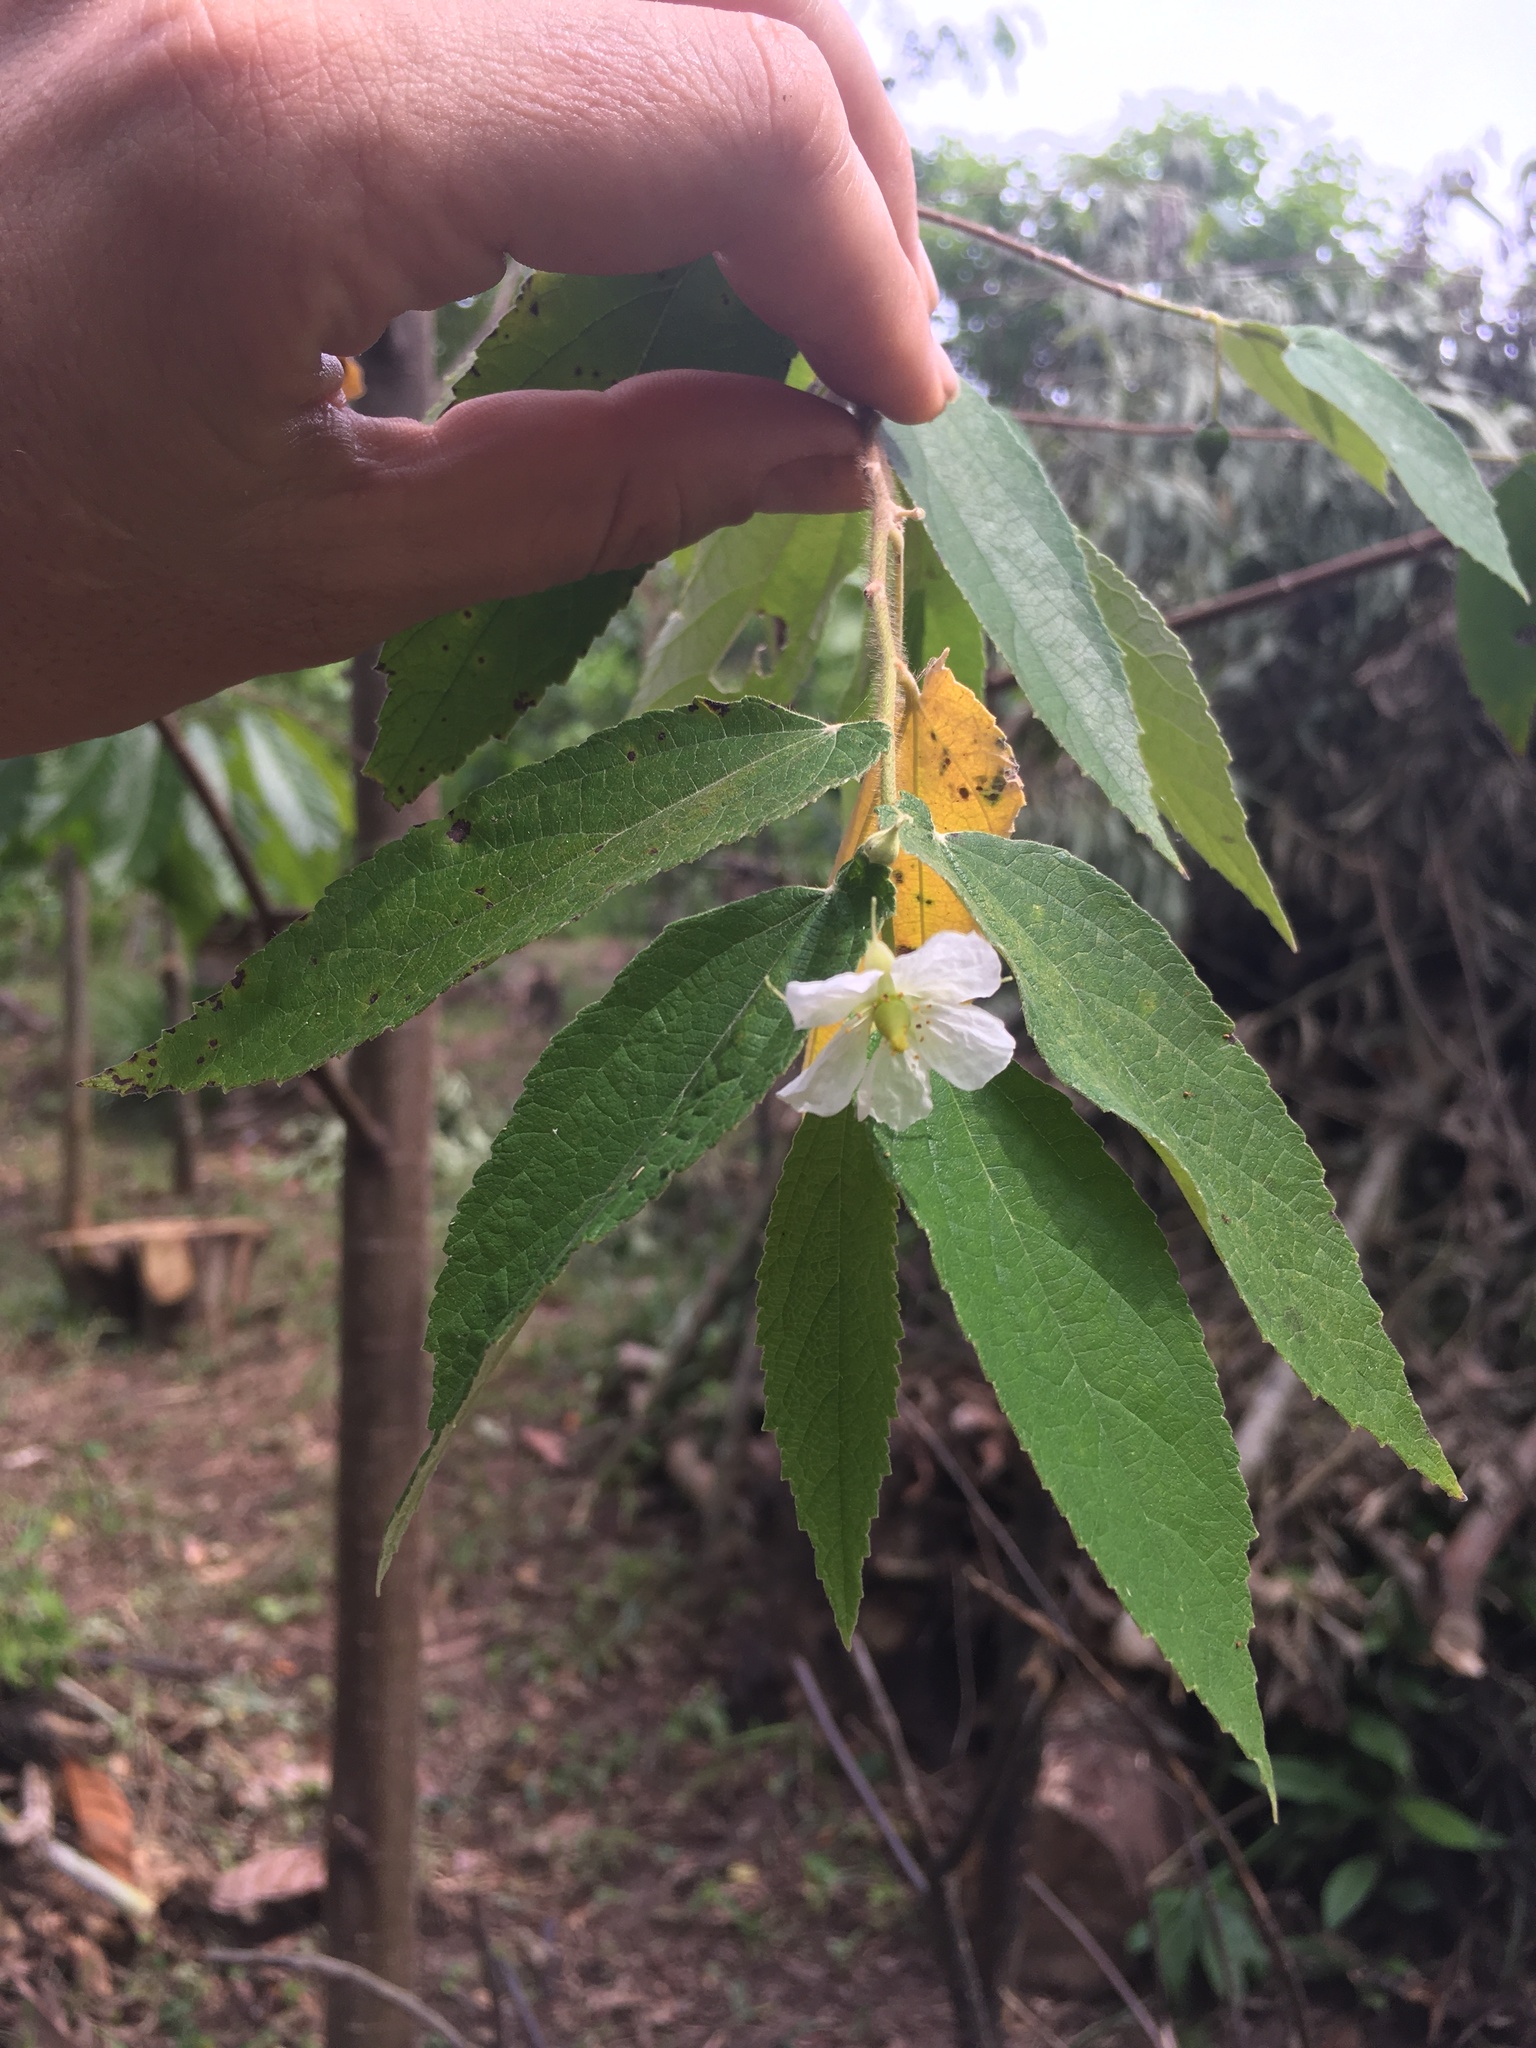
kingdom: Plantae
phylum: Tracheophyta
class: Magnoliopsida
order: Malvales
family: Muntingiaceae
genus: Muntingia
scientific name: Muntingia calabura
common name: Strawberrytree
